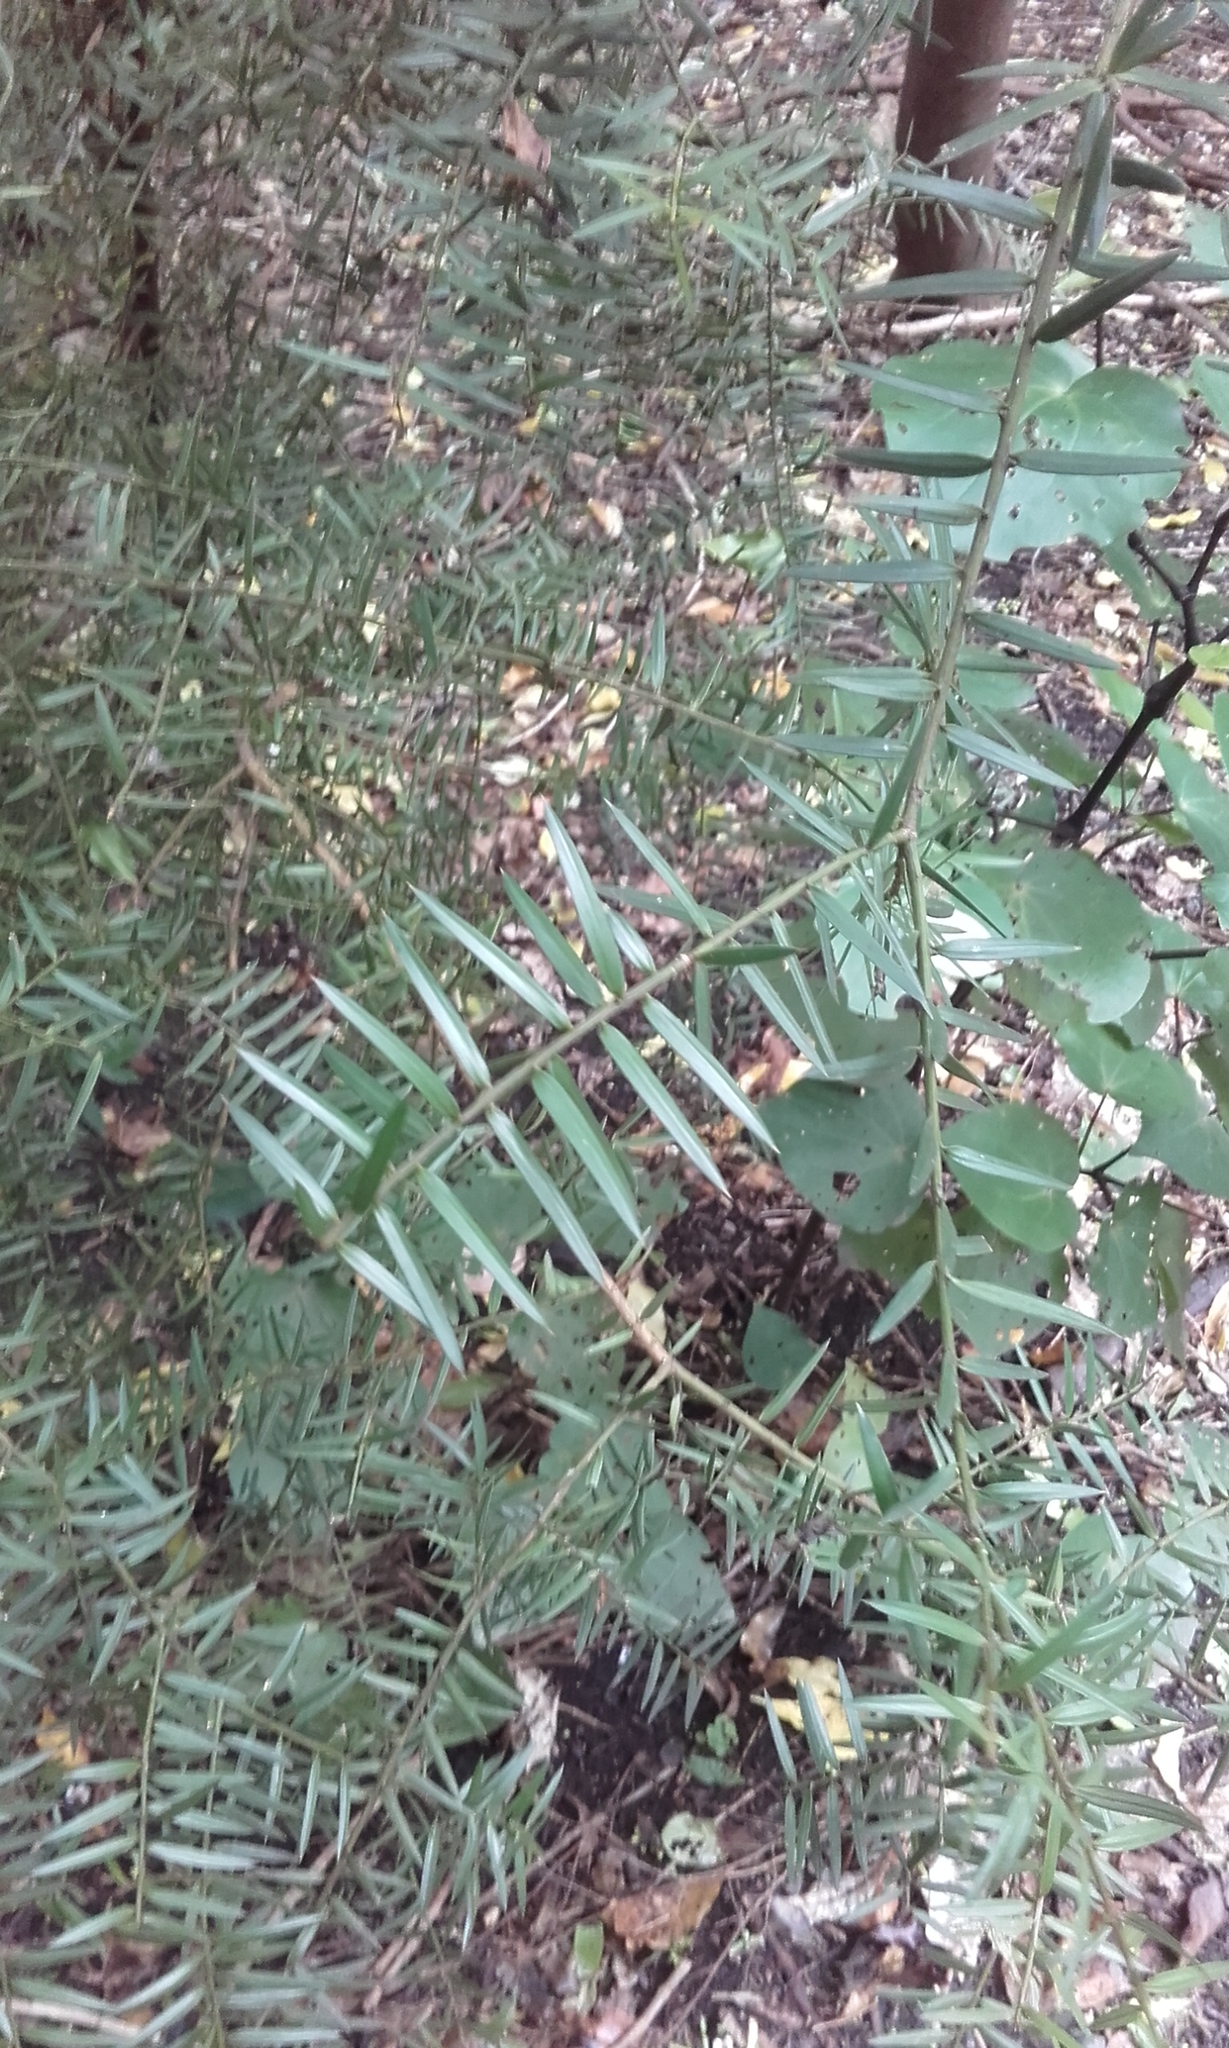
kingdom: Plantae
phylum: Tracheophyta
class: Pinopsida
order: Pinales
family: Podocarpaceae
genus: Podocarpus
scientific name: Podocarpus totara
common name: Totara
